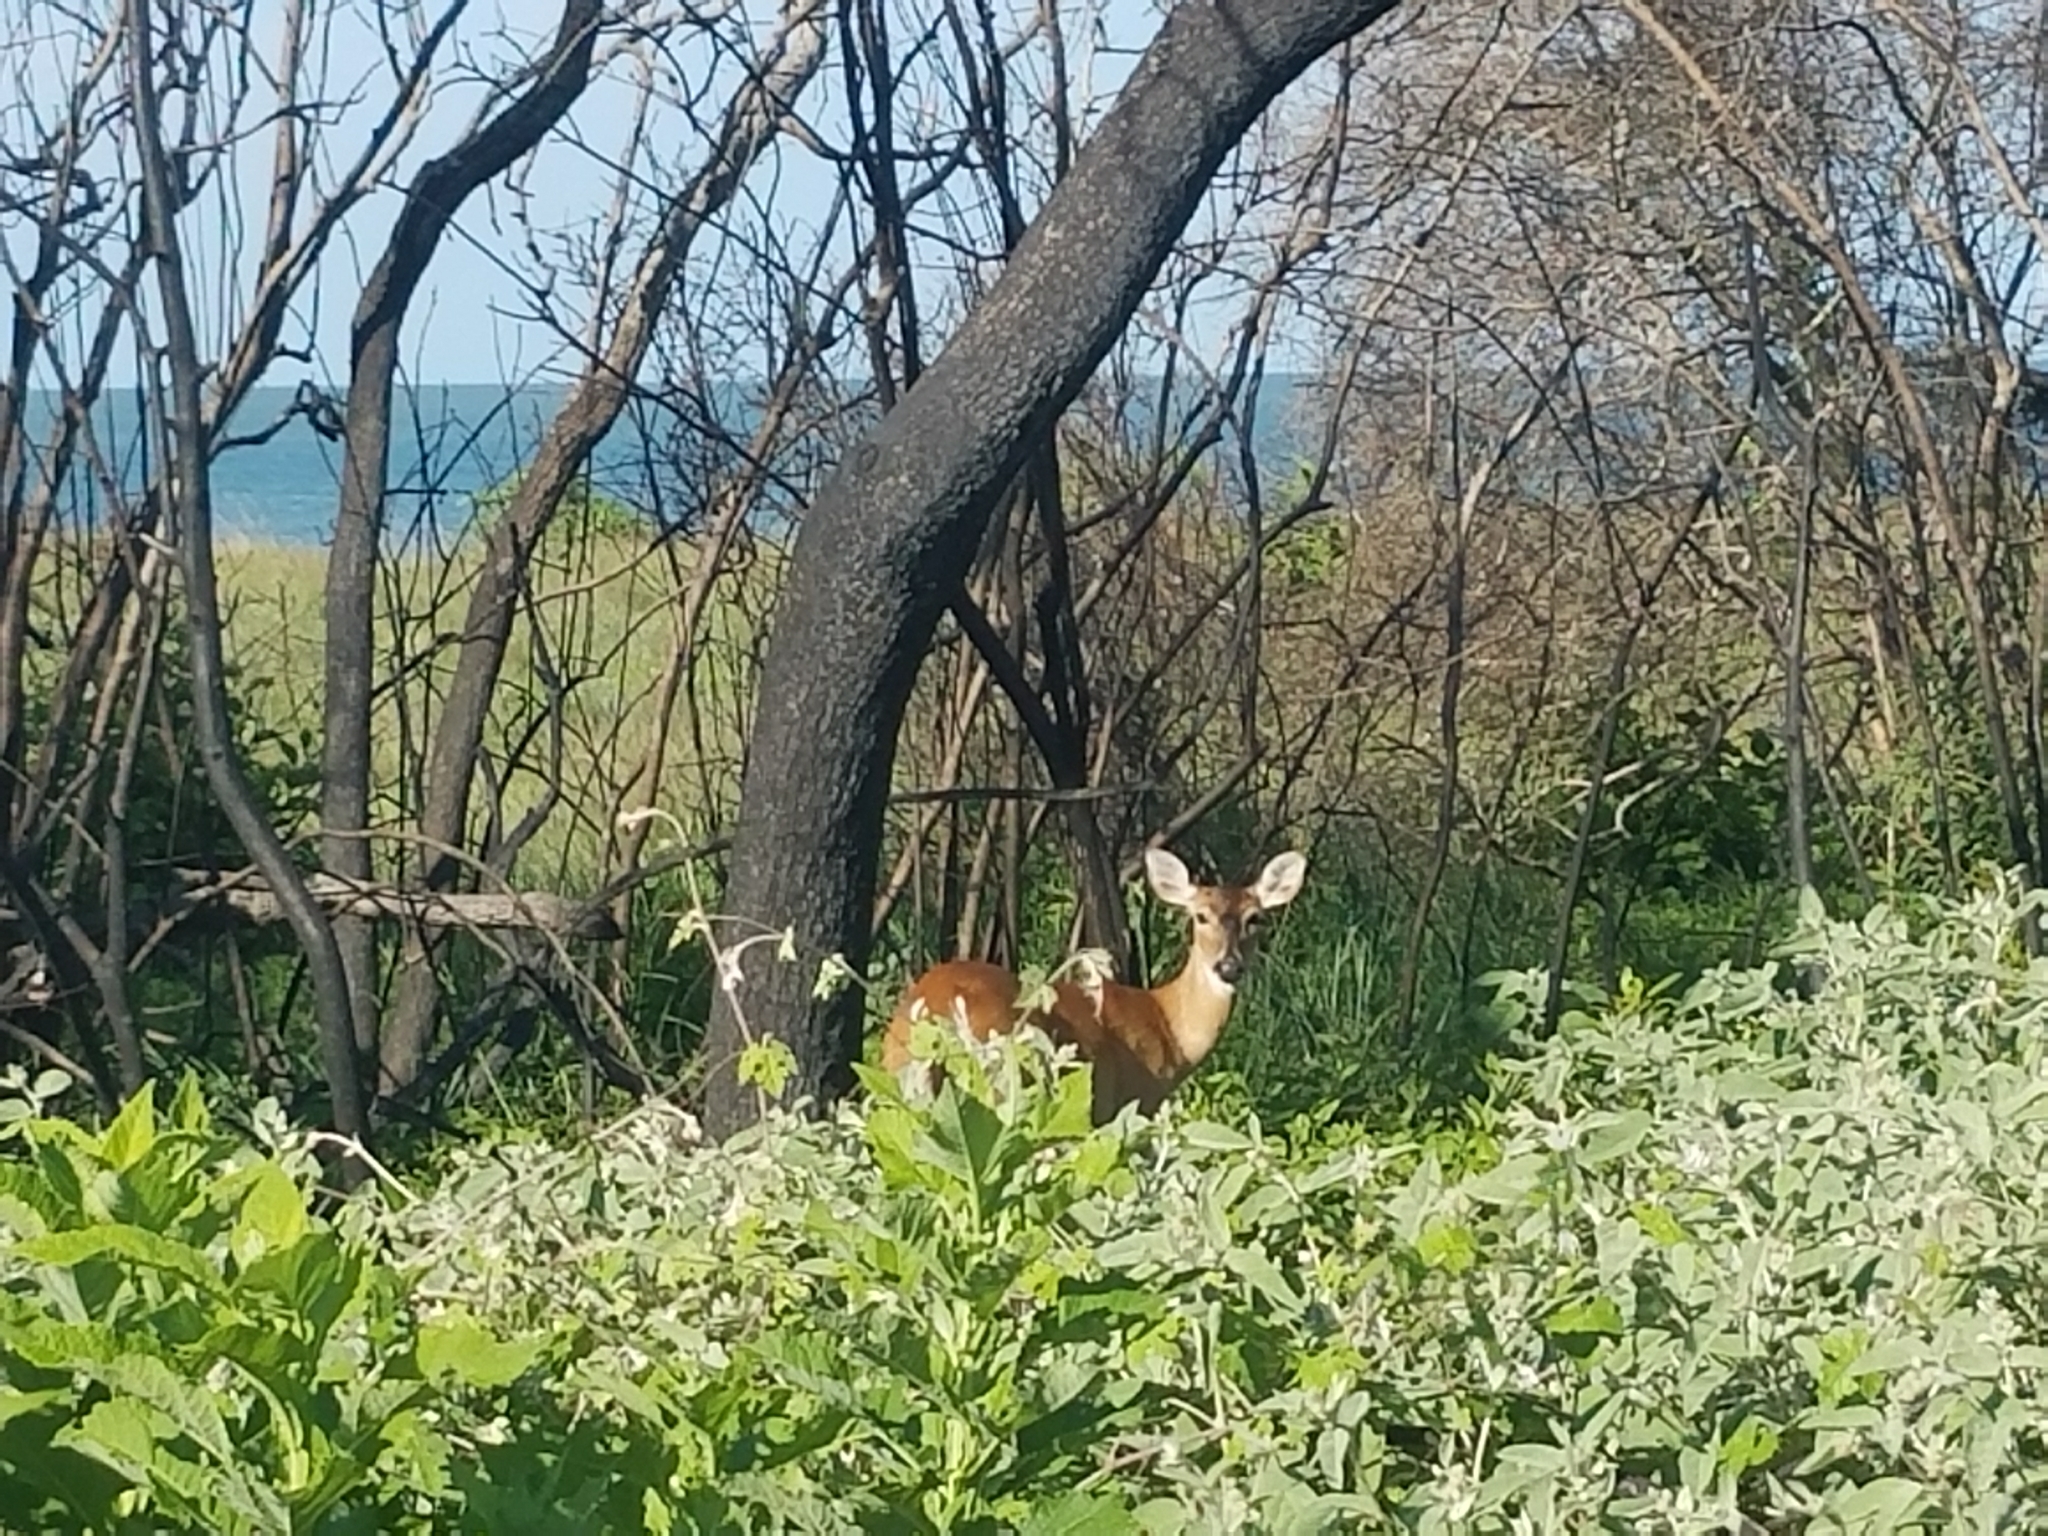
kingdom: Animalia
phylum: Chordata
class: Mammalia
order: Artiodactyla
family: Cervidae
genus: Odocoileus
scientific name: Odocoileus virginianus
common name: White-tailed deer
